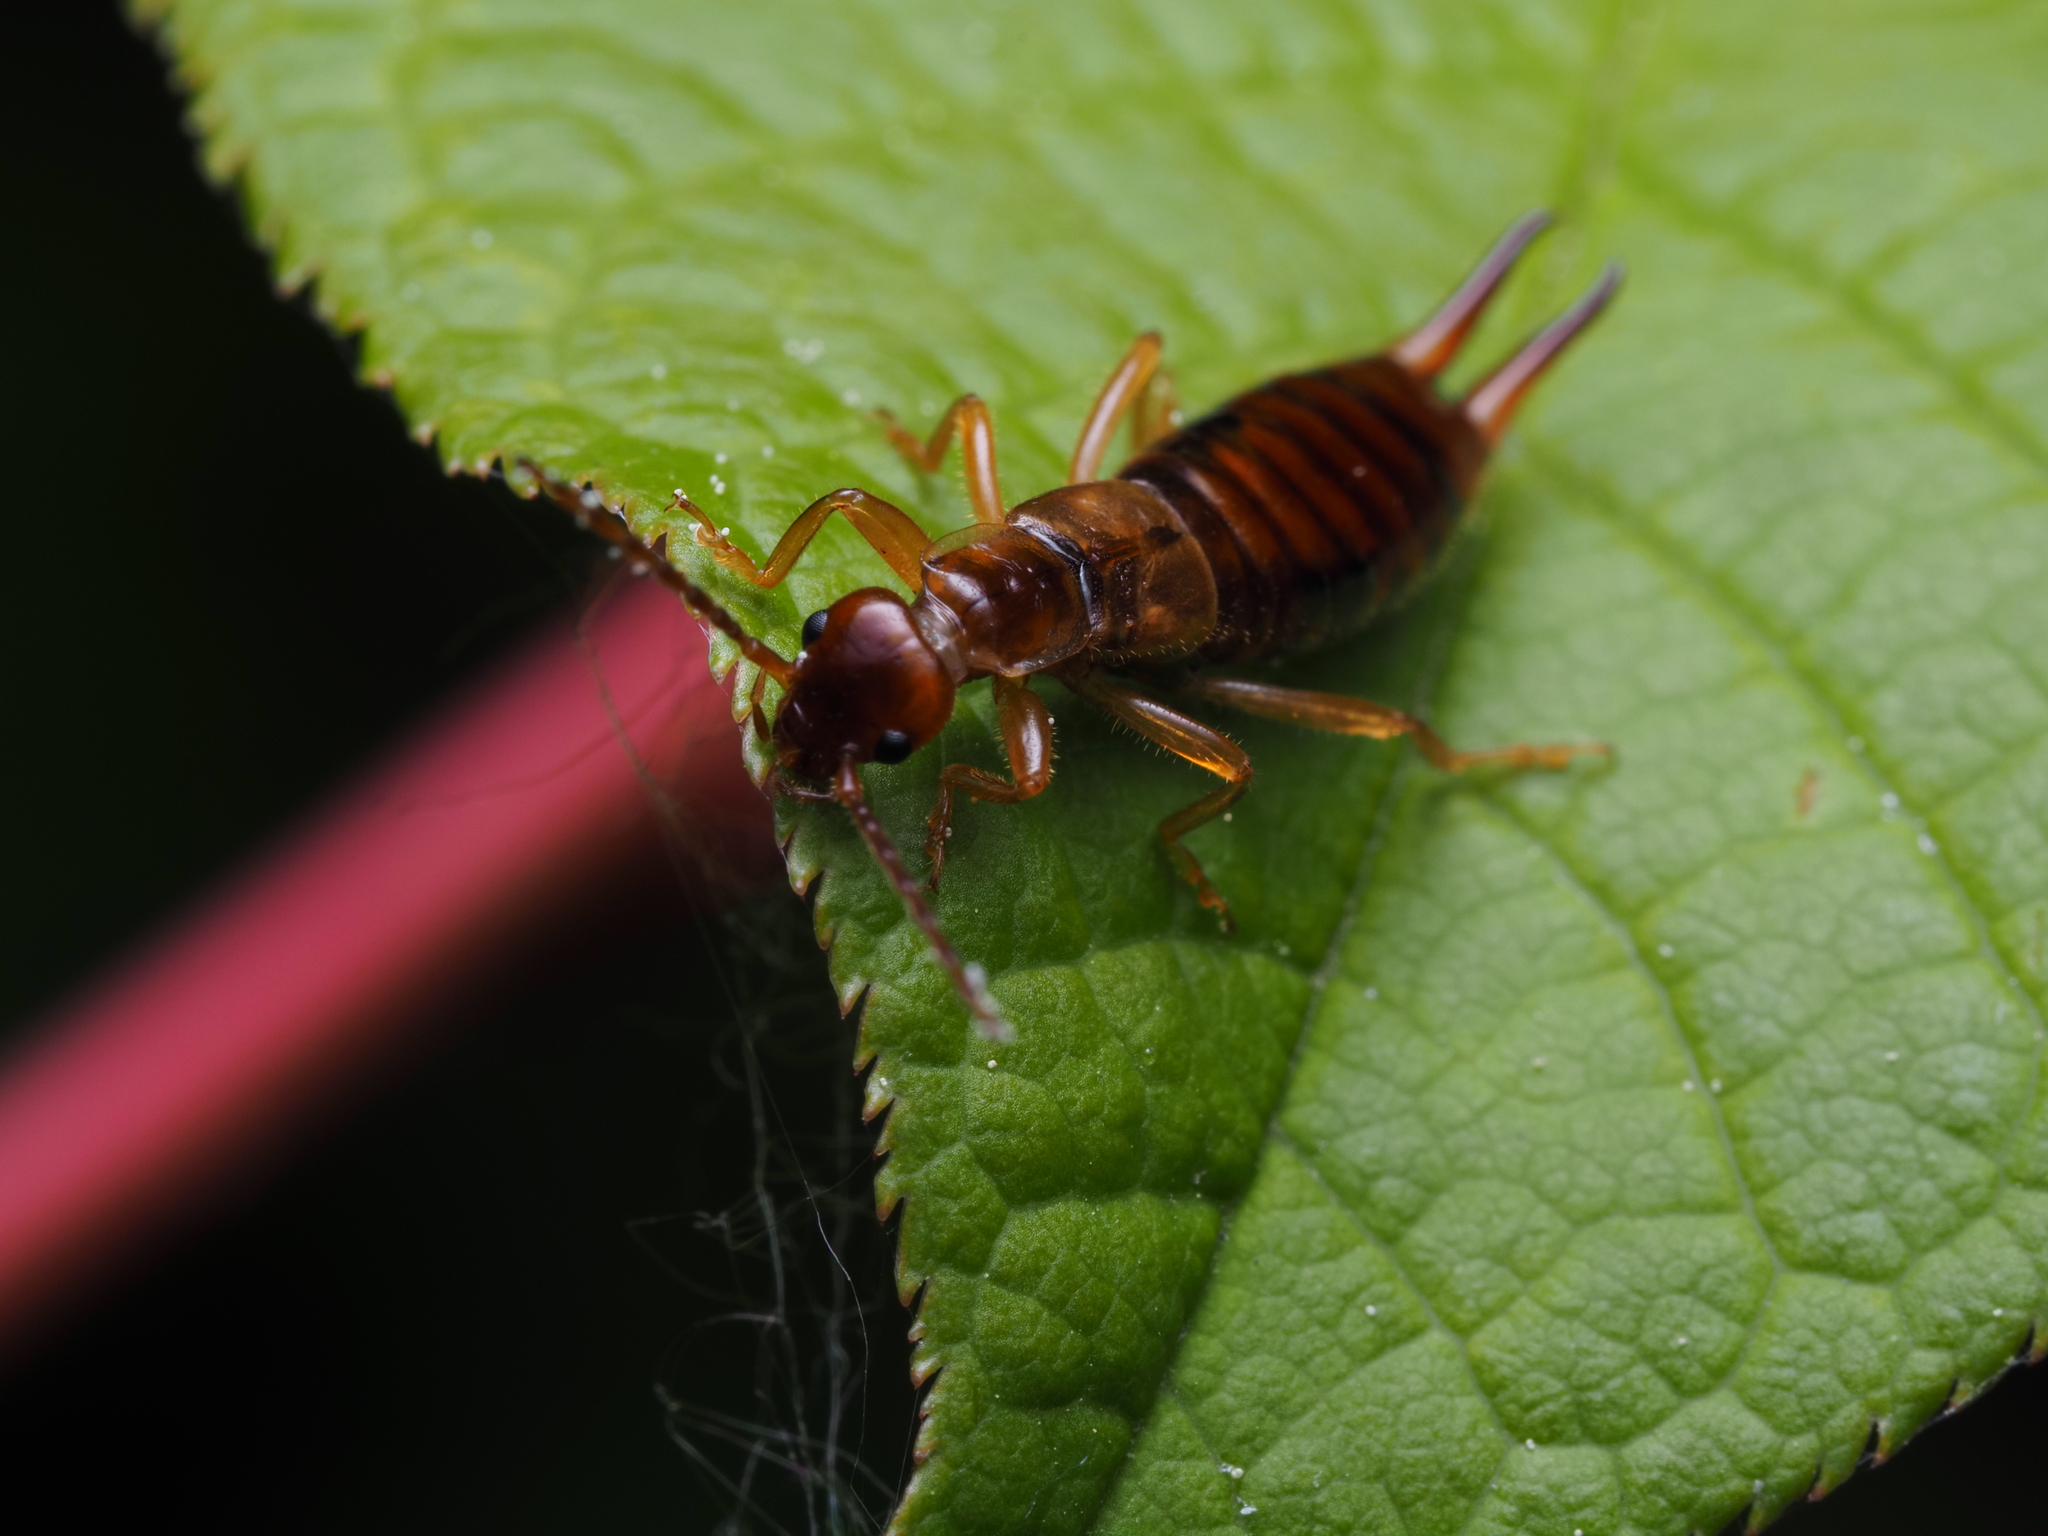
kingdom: Animalia
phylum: Arthropoda
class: Insecta
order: Dermaptera
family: Forficulidae
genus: Apterygida
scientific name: Apterygida albipennis
